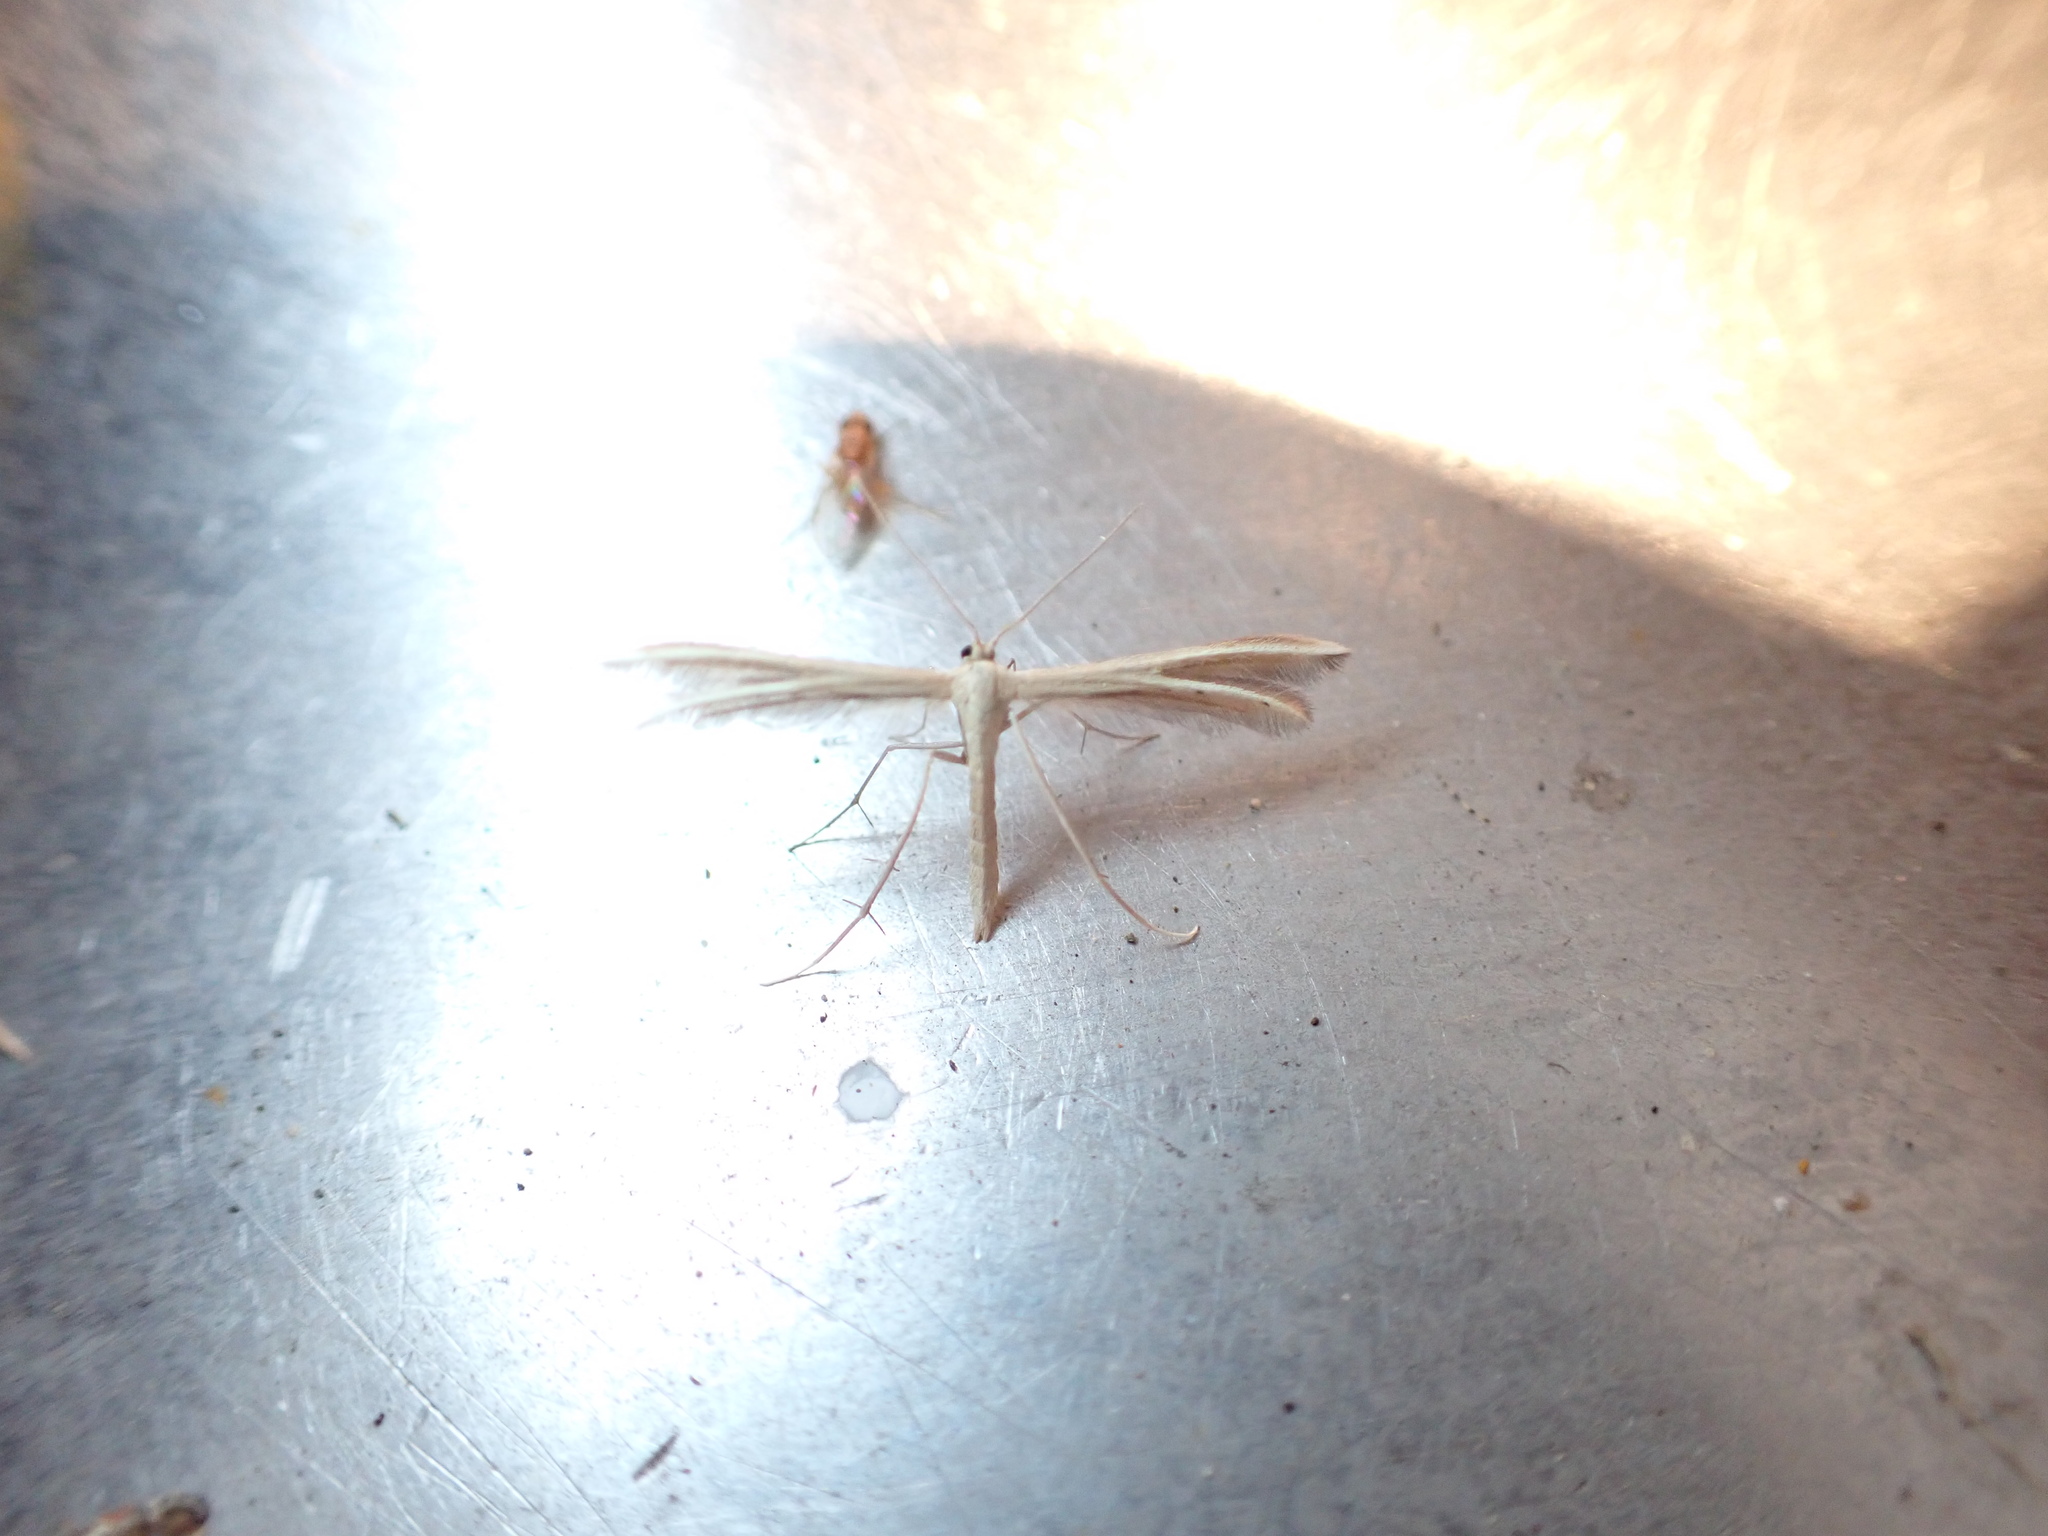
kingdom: Animalia
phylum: Arthropoda
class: Insecta
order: Lepidoptera
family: Pterophoridae
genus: Pterophorus
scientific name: Pterophorus innotatalis
